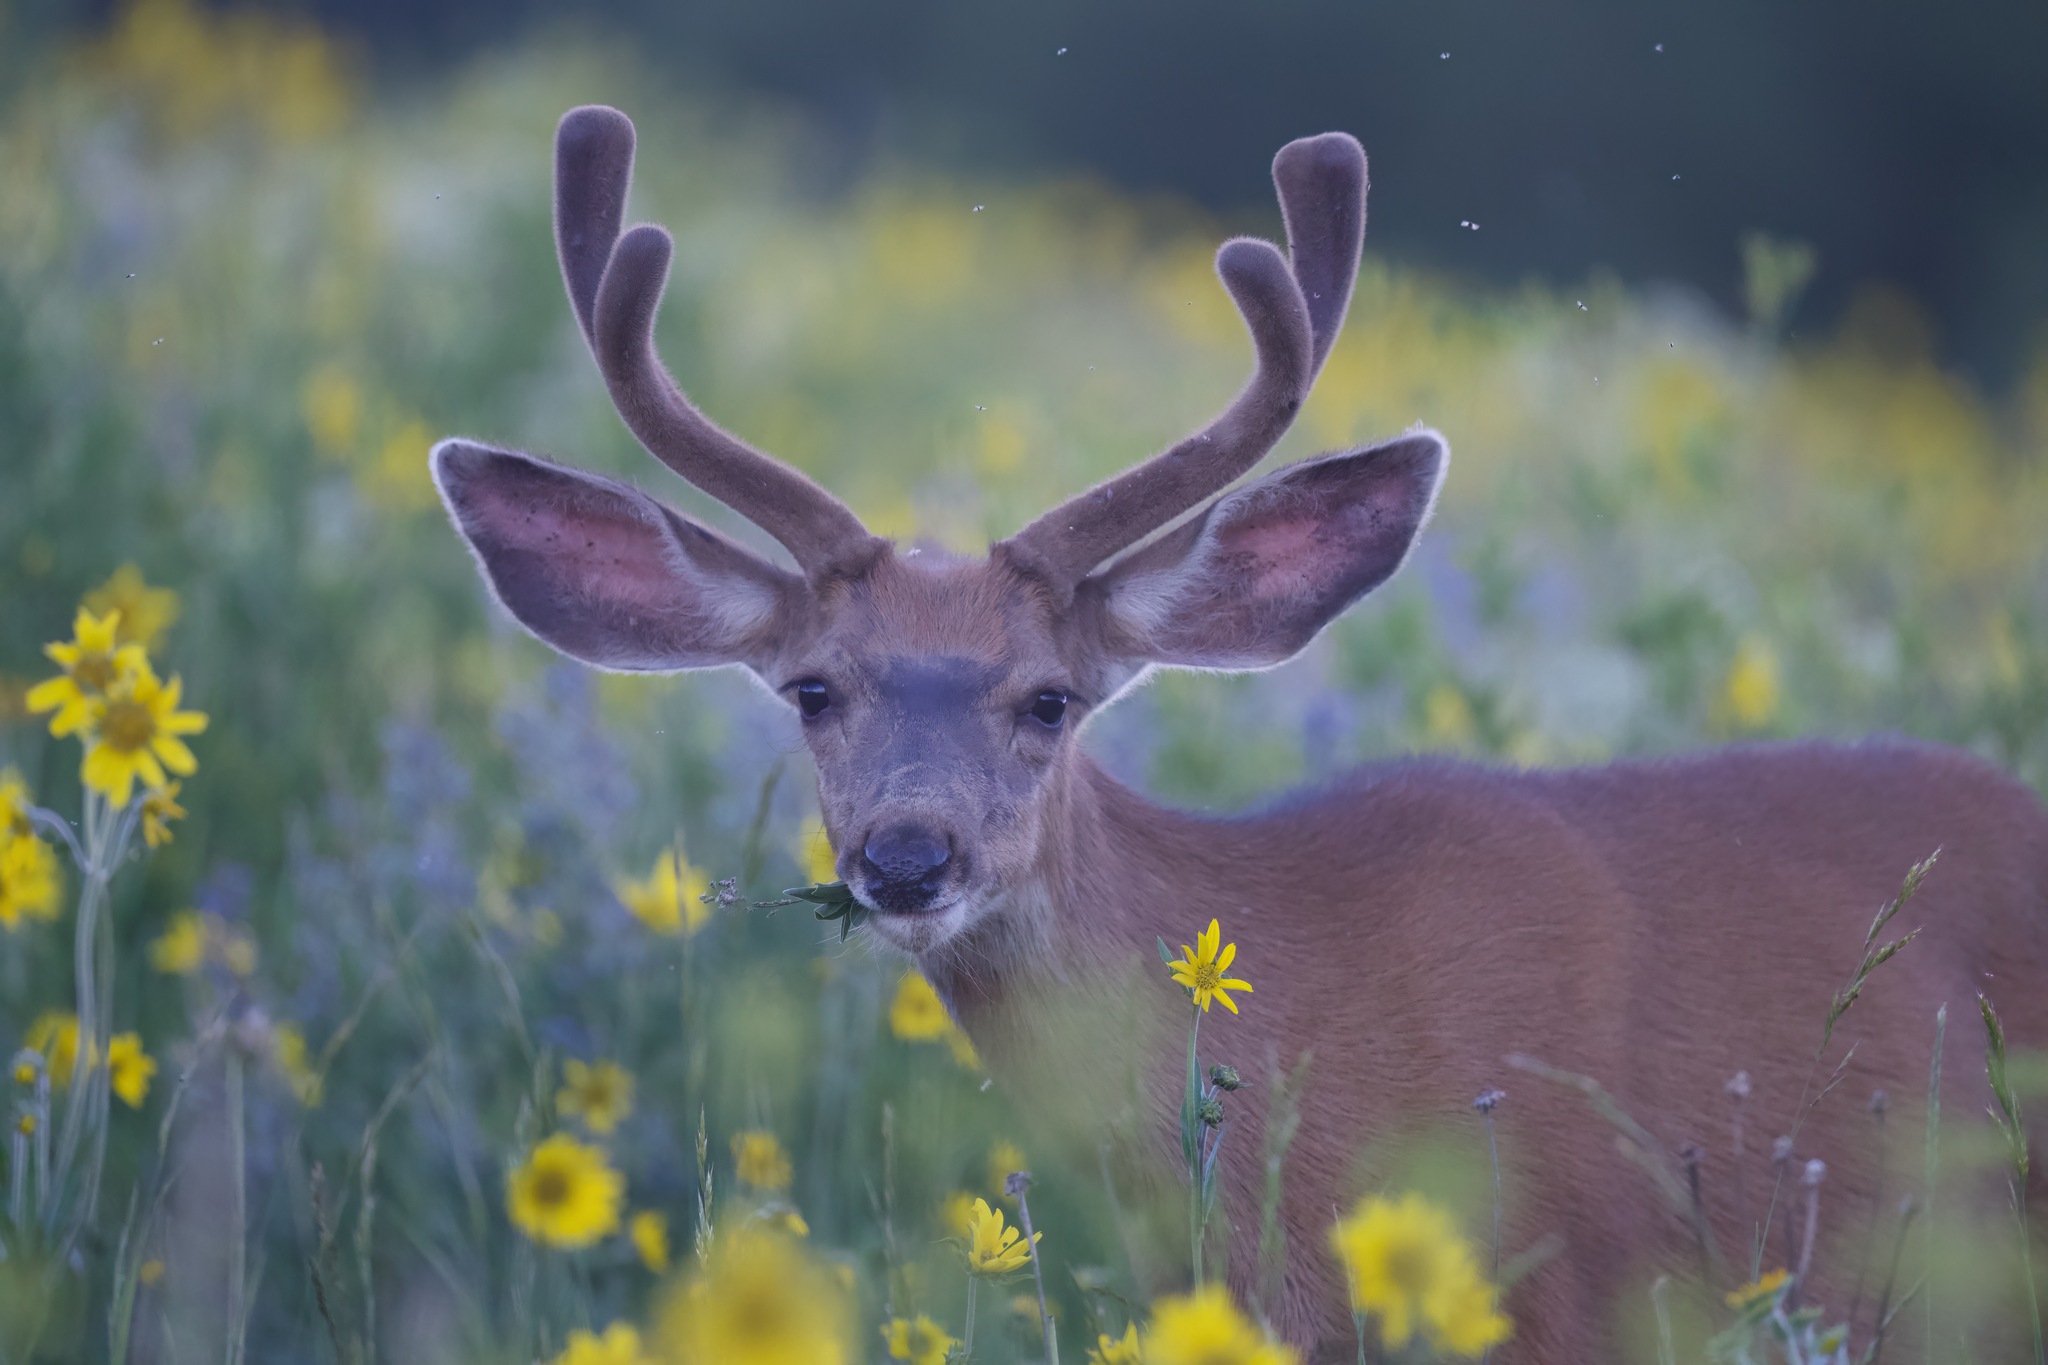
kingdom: Animalia
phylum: Chordata
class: Mammalia
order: Artiodactyla
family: Cervidae
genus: Odocoileus
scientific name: Odocoileus hemionus
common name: Mule deer
